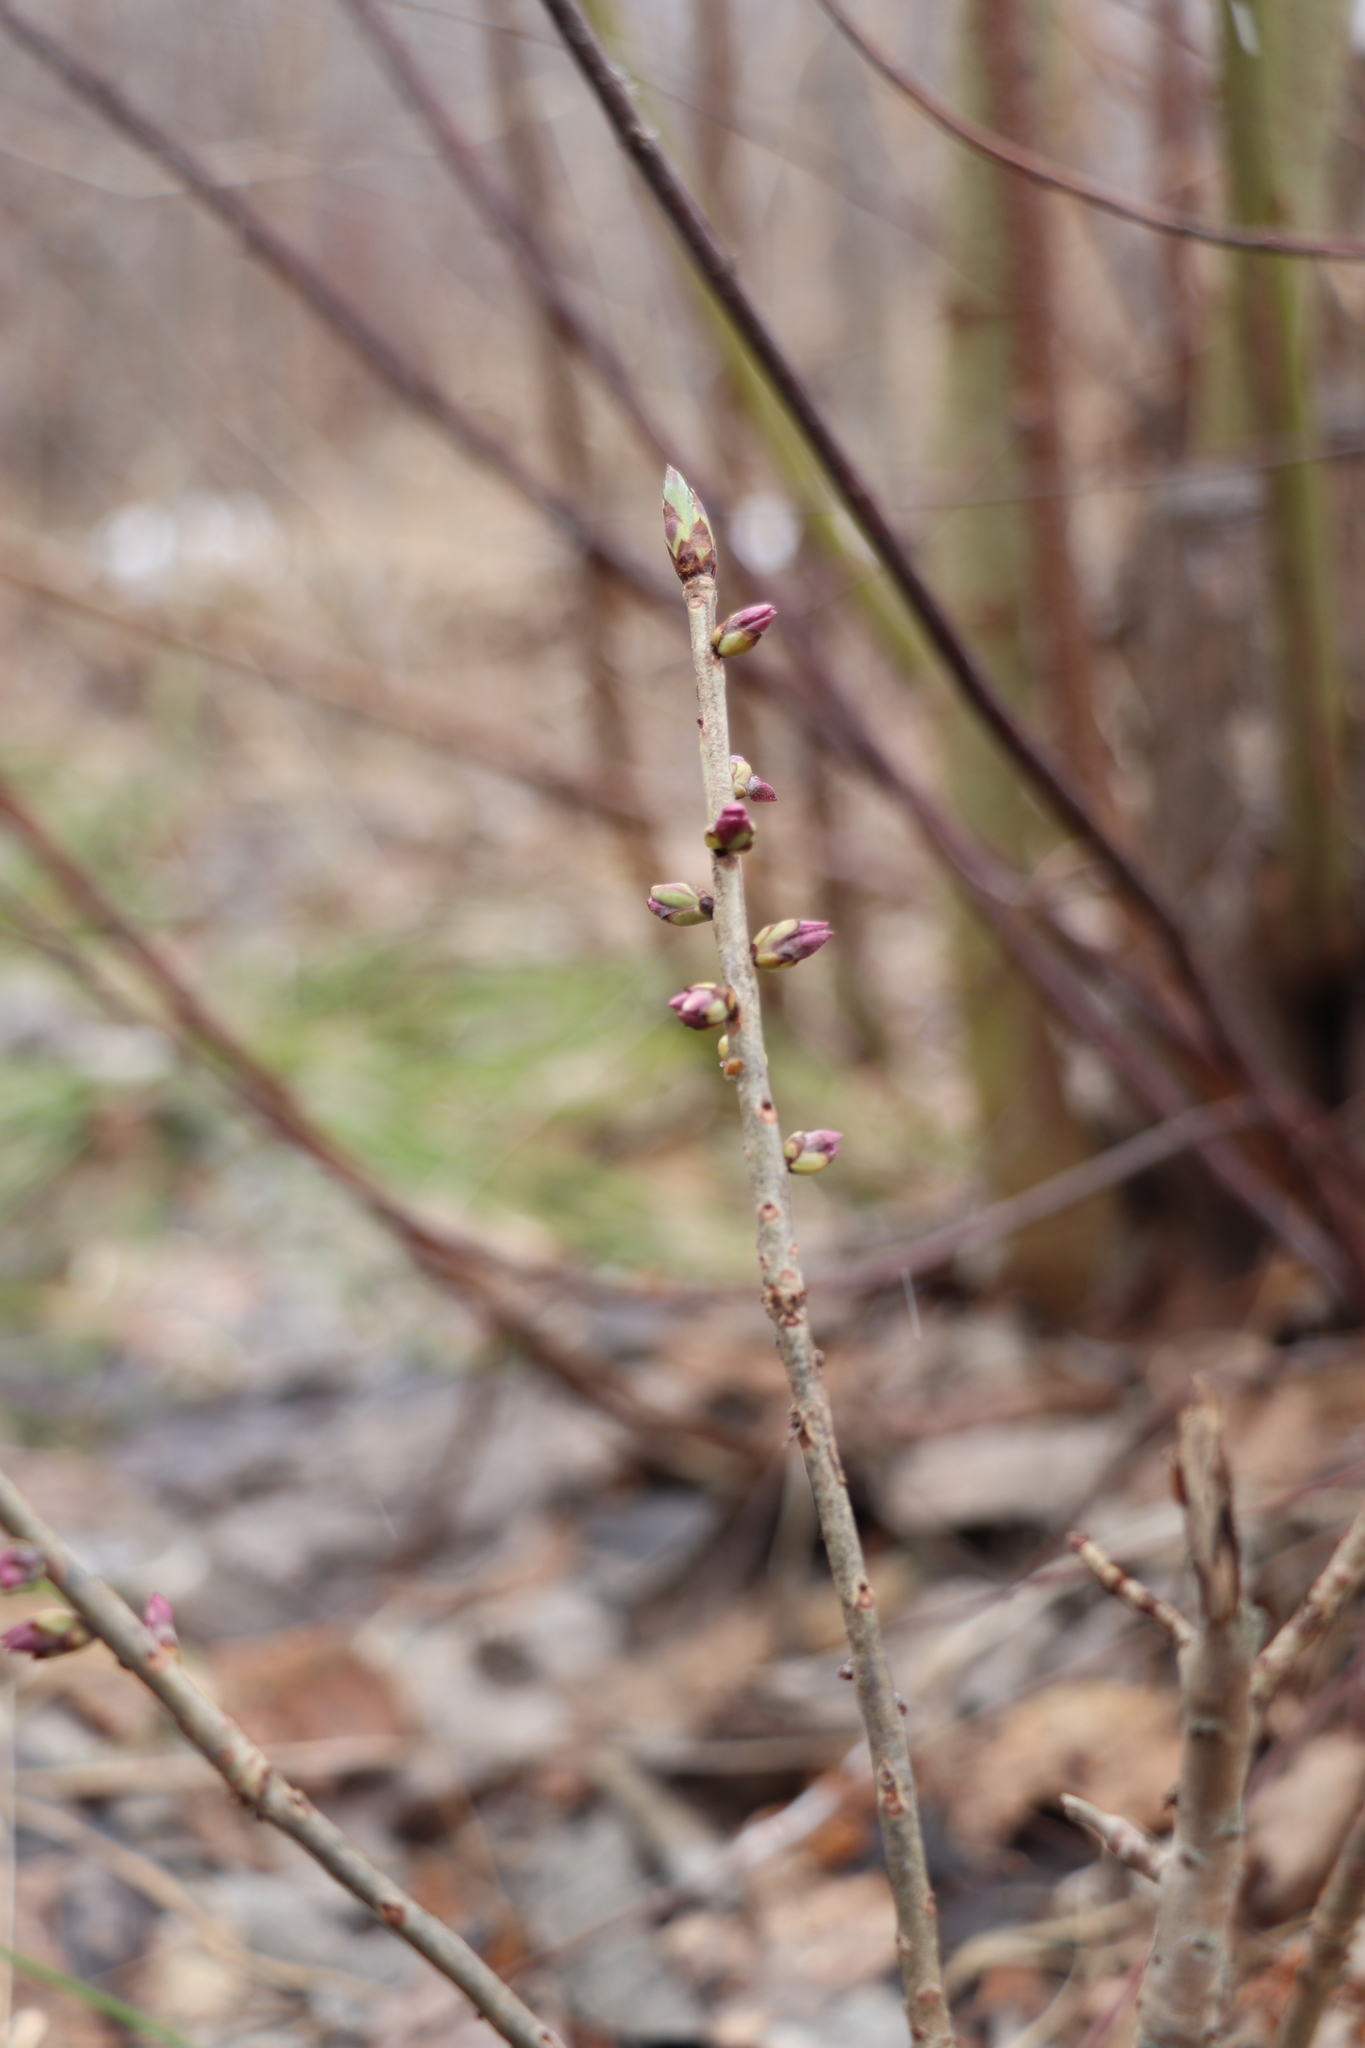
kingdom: Plantae
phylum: Tracheophyta
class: Magnoliopsida
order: Malvales
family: Thymelaeaceae
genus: Daphne
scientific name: Daphne mezereum
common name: Mezereon
